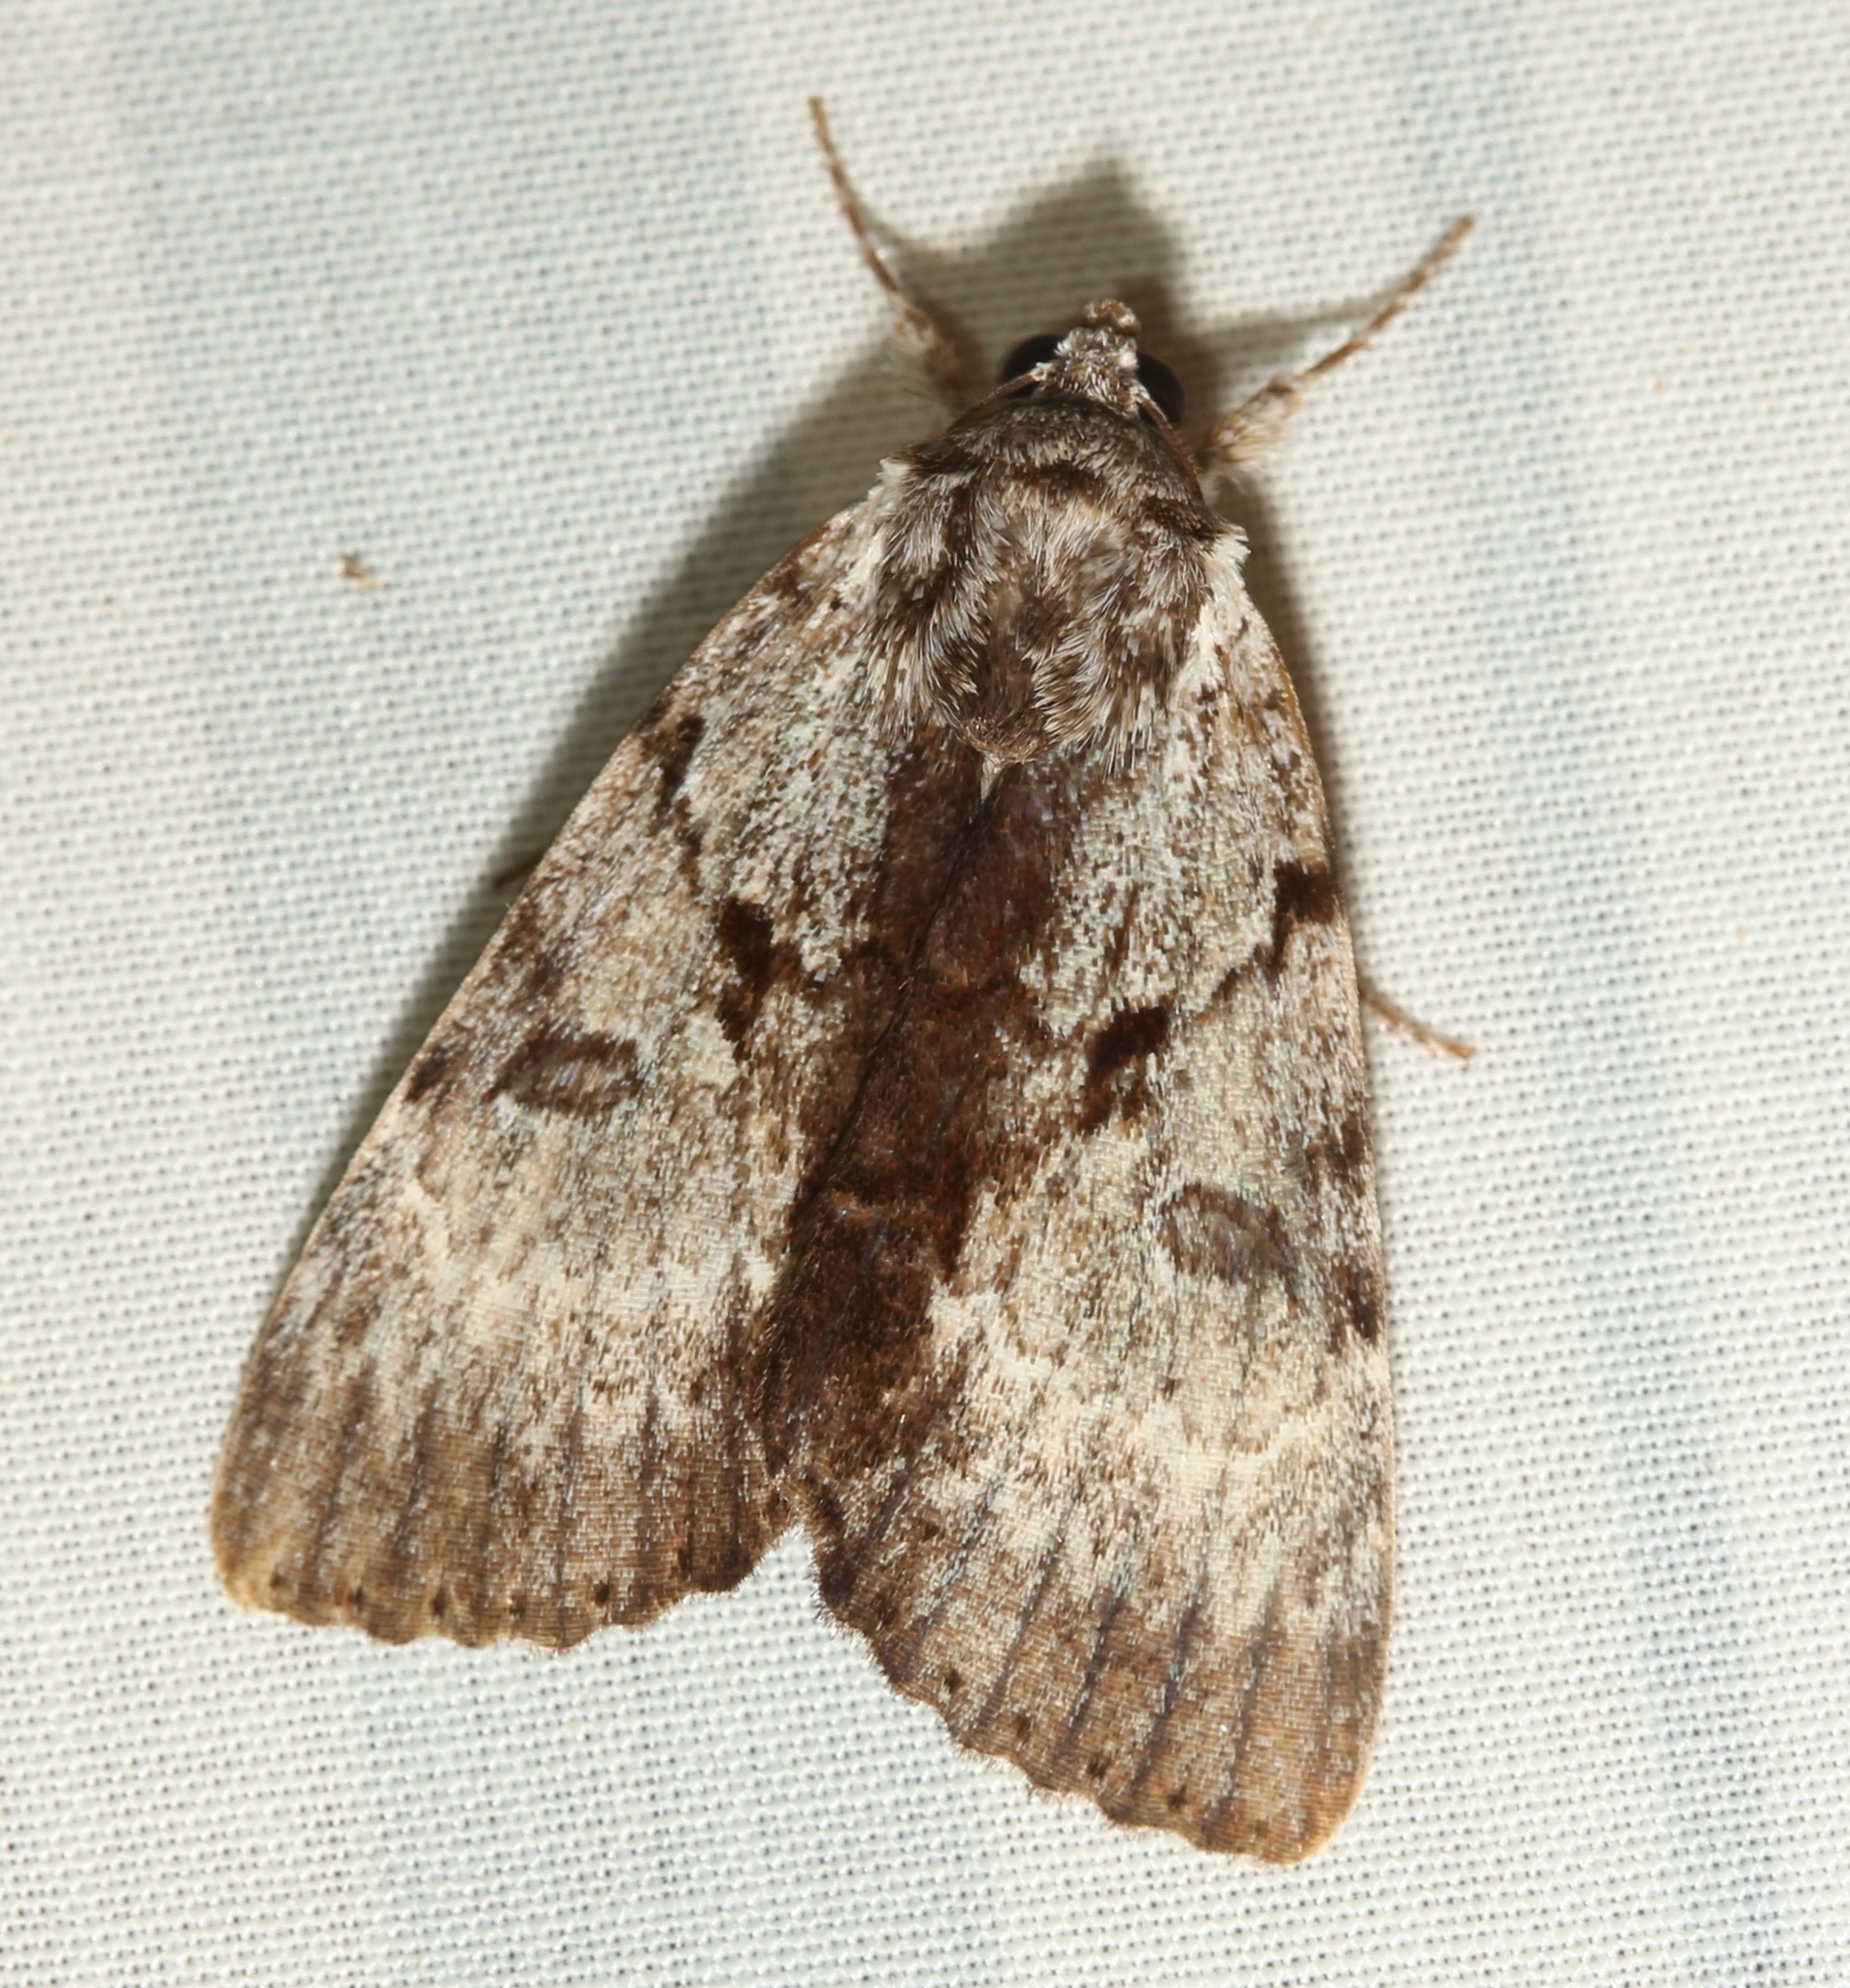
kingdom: Animalia
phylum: Arthropoda
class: Insecta
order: Lepidoptera
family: Erebidae
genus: Catocala
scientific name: Catocala andromedae
